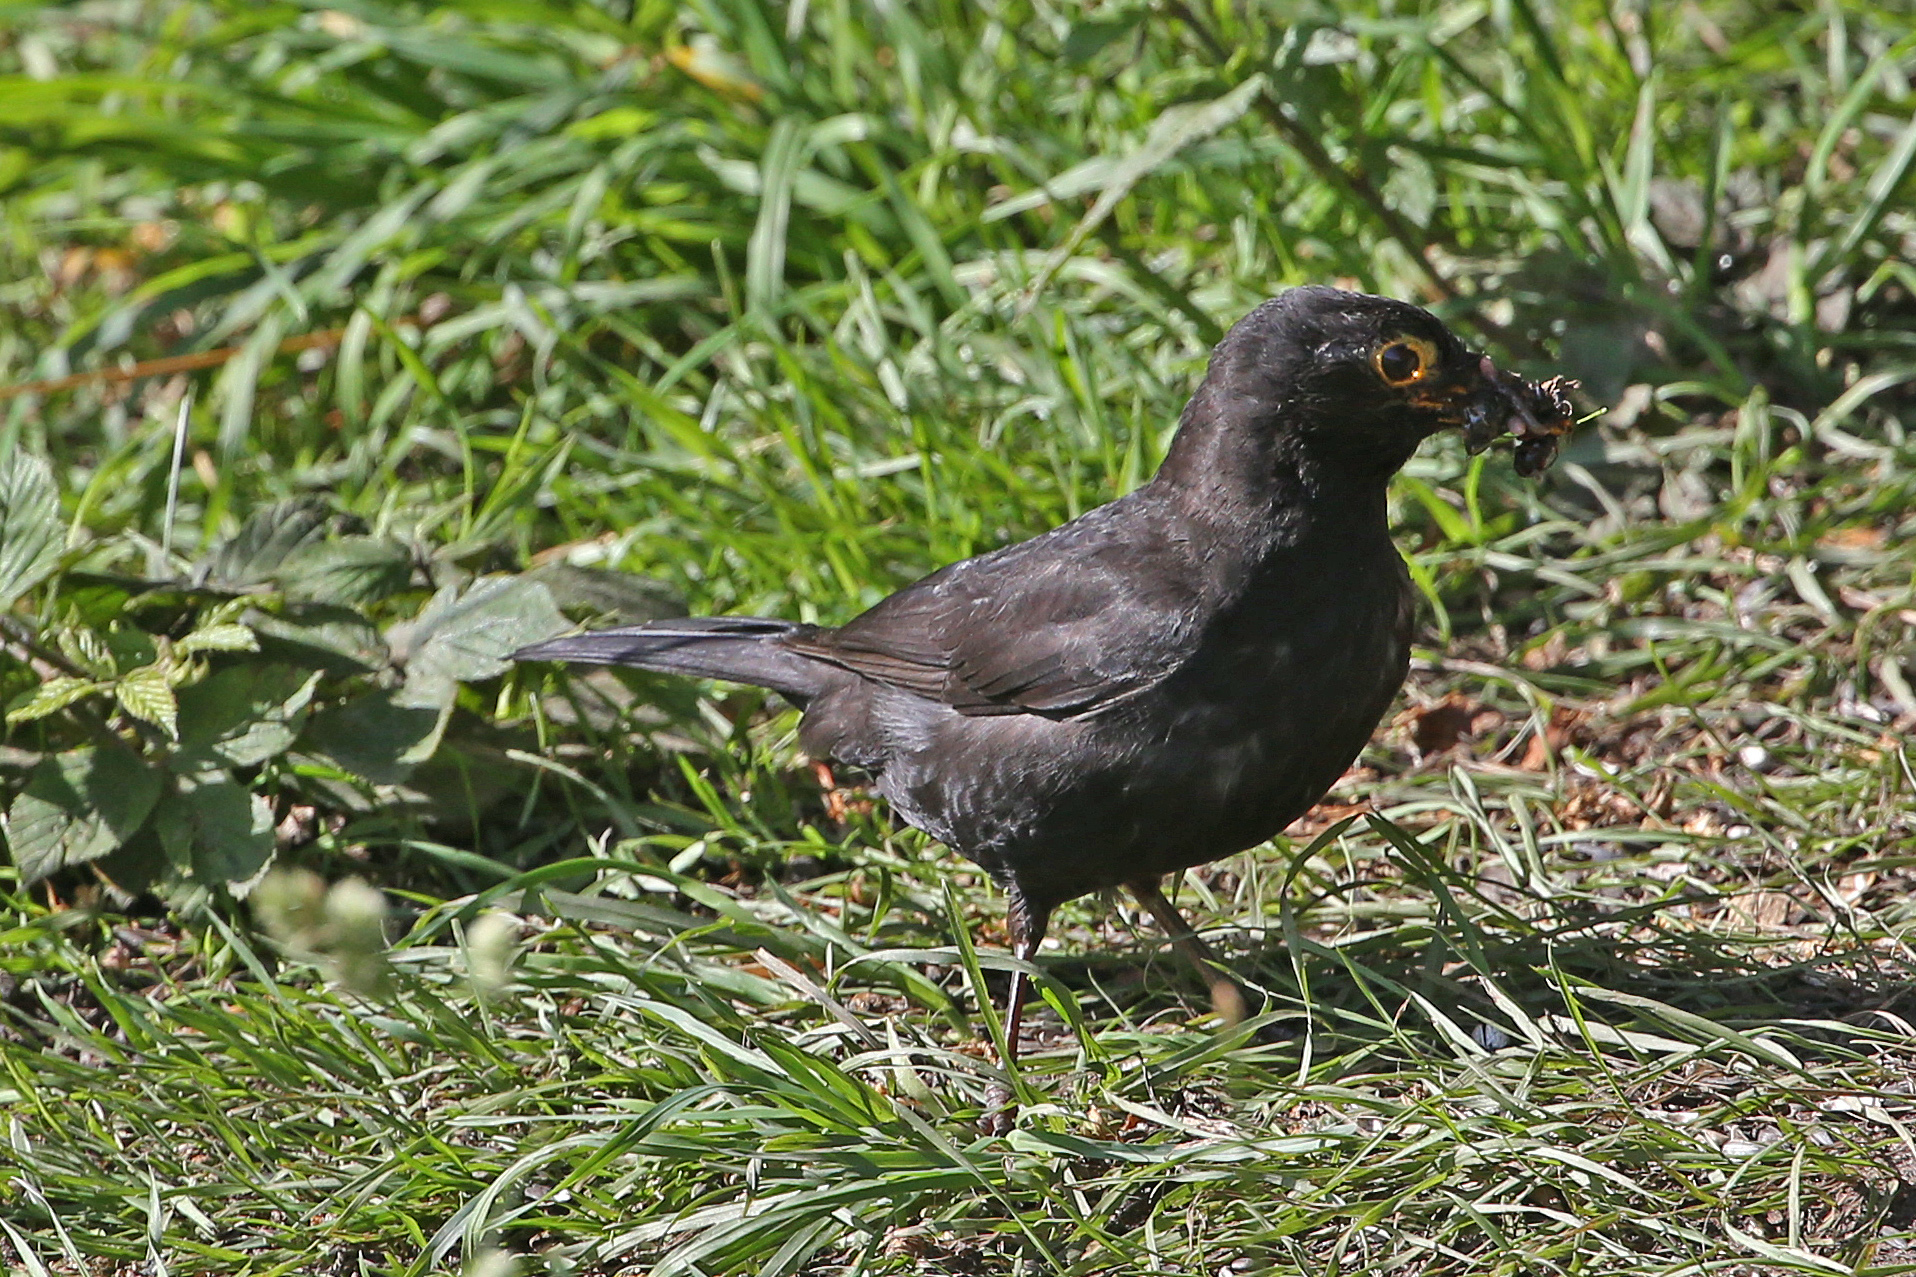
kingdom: Animalia
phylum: Chordata
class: Aves
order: Passeriformes
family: Turdidae
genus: Turdus
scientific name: Turdus merula
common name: Common blackbird
